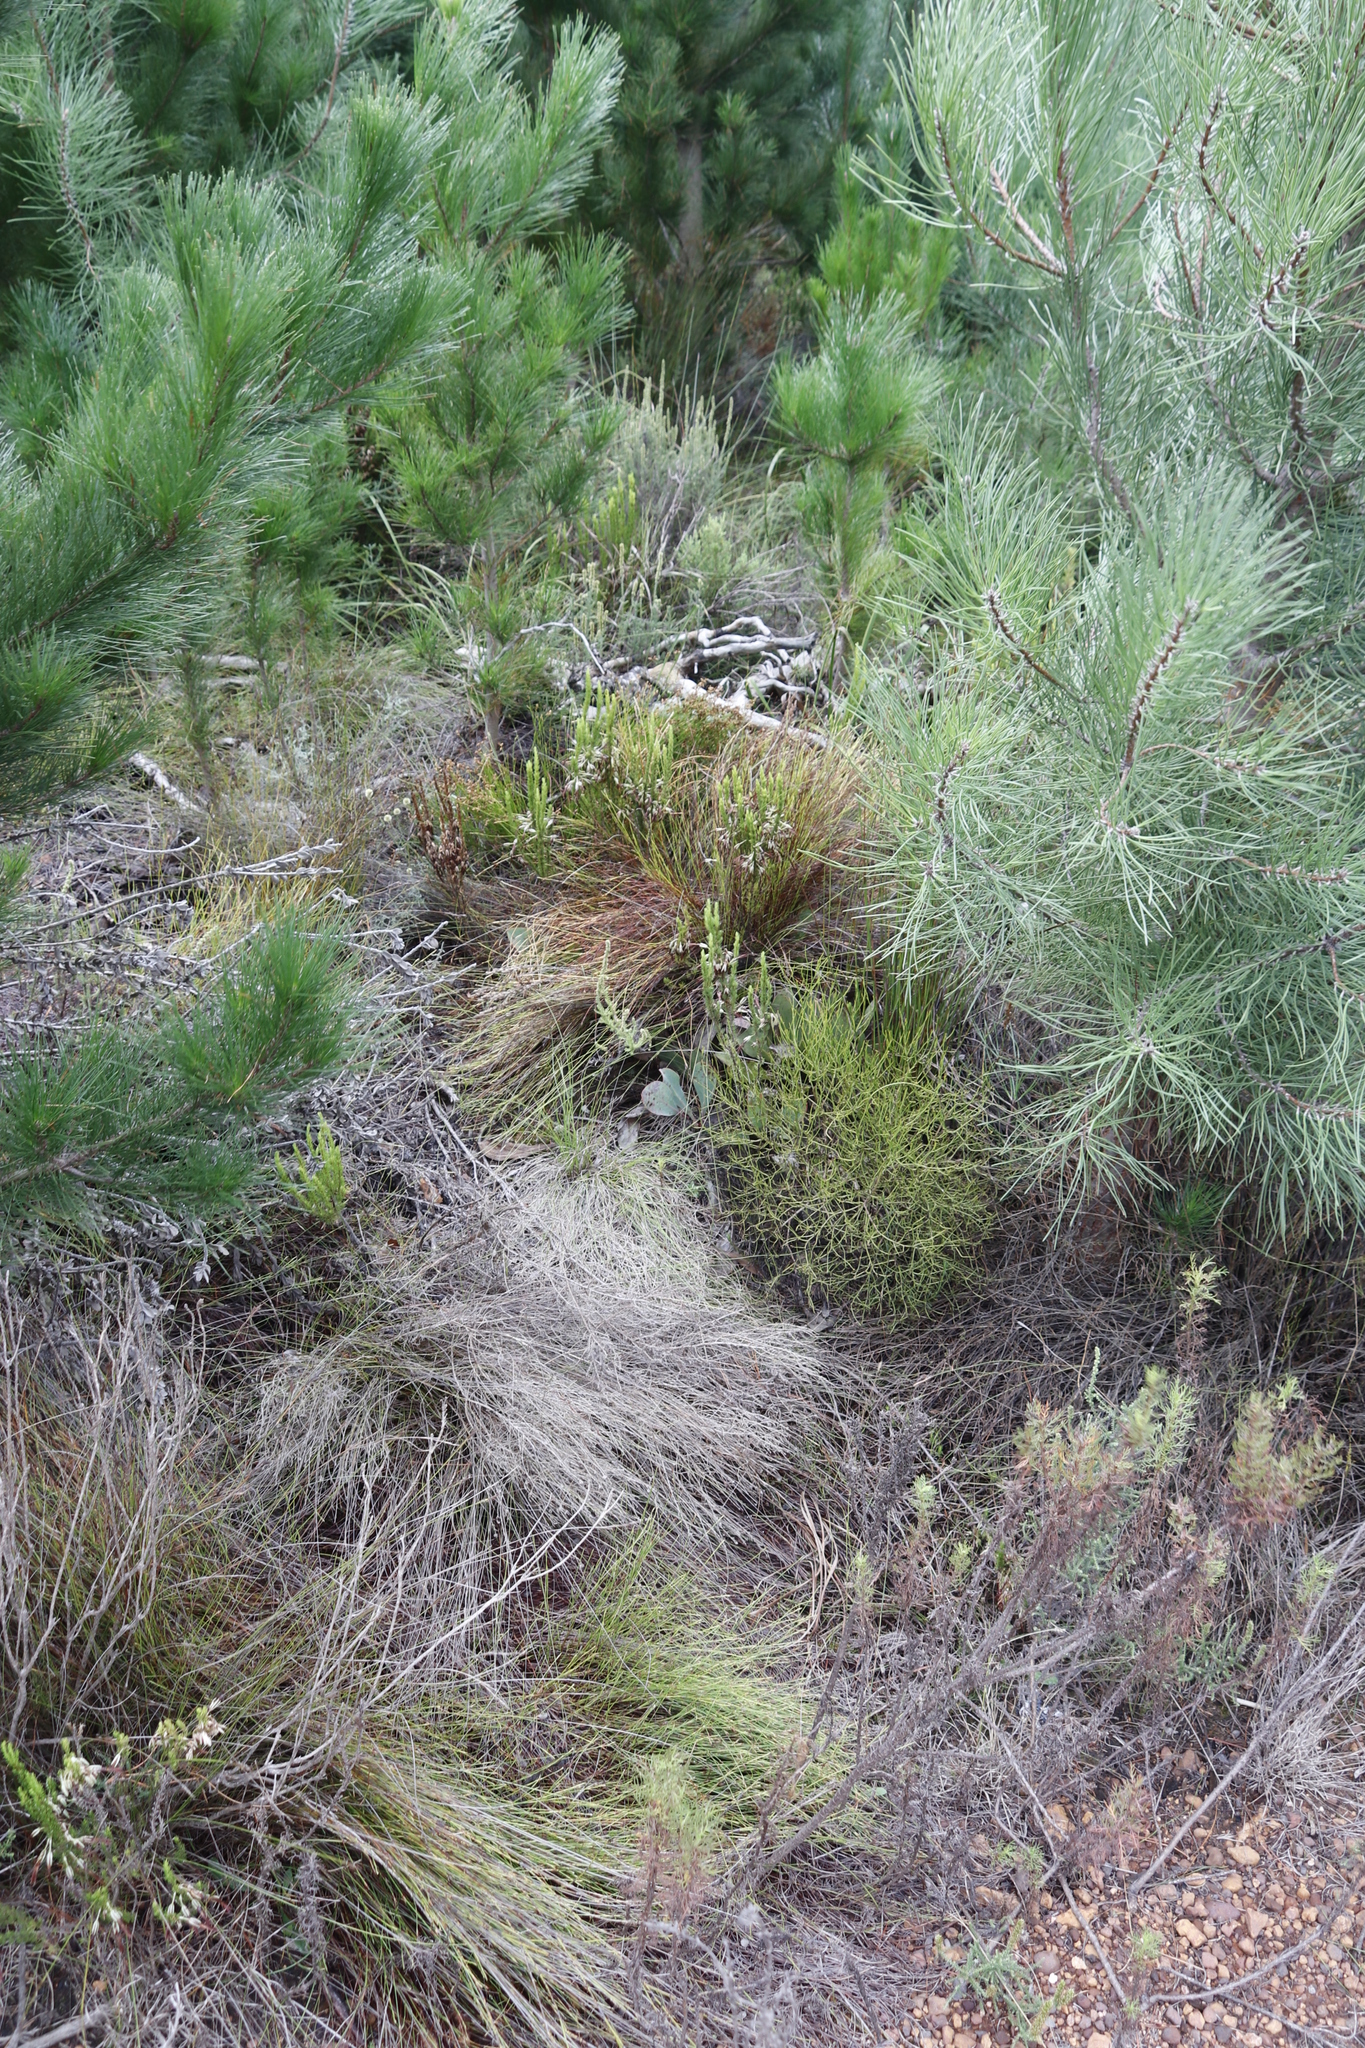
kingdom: Plantae
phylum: Tracheophyta
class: Magnoliopsida
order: Proteales
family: Proteaceae
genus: Protea
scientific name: Protea acaulos
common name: Common ground sugarbush
